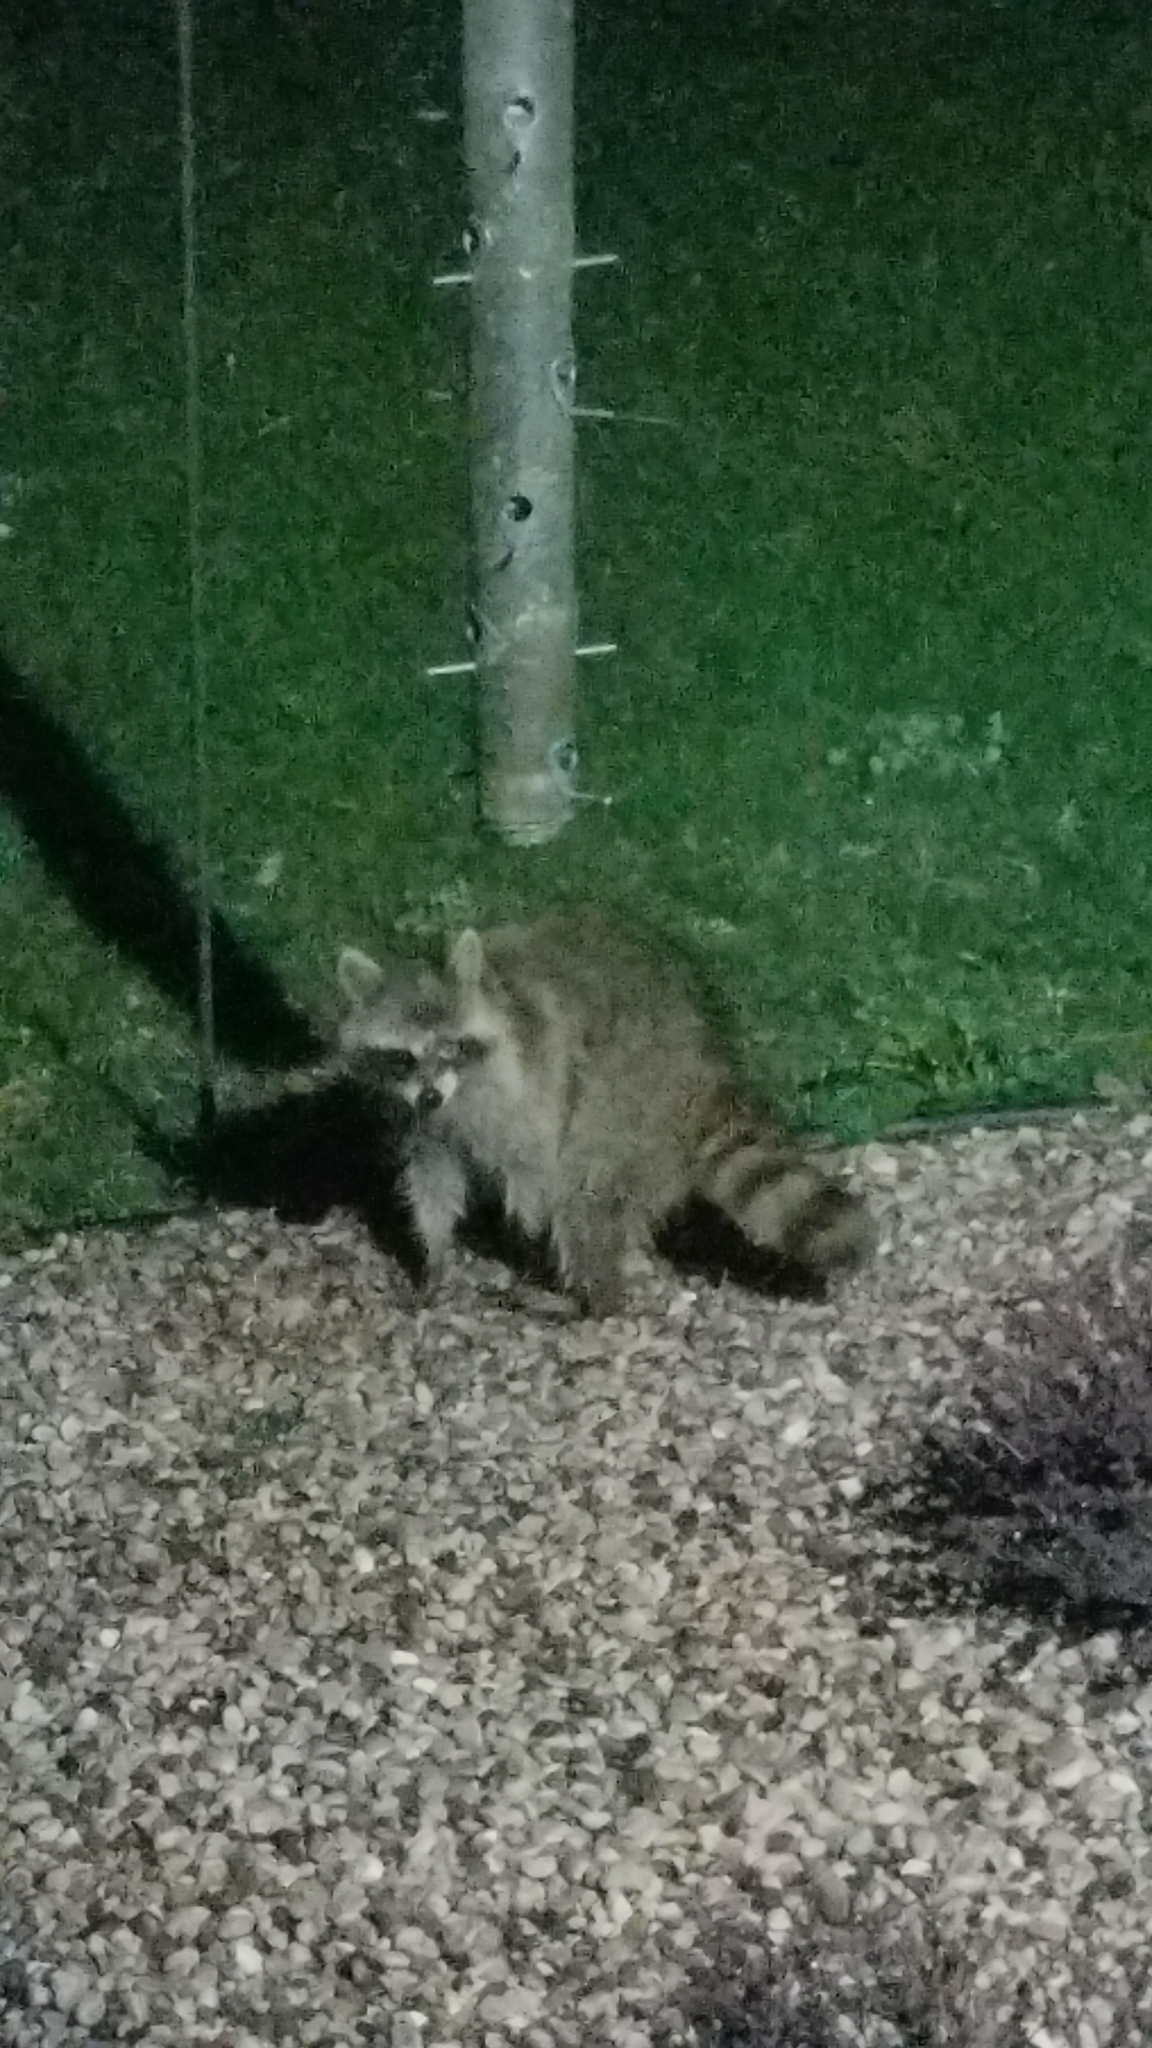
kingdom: Animalia
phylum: Chordata
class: Mammalia
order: Carnivora
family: Procyonidae
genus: Procyon
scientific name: Procyon lotor
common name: Raccoon
